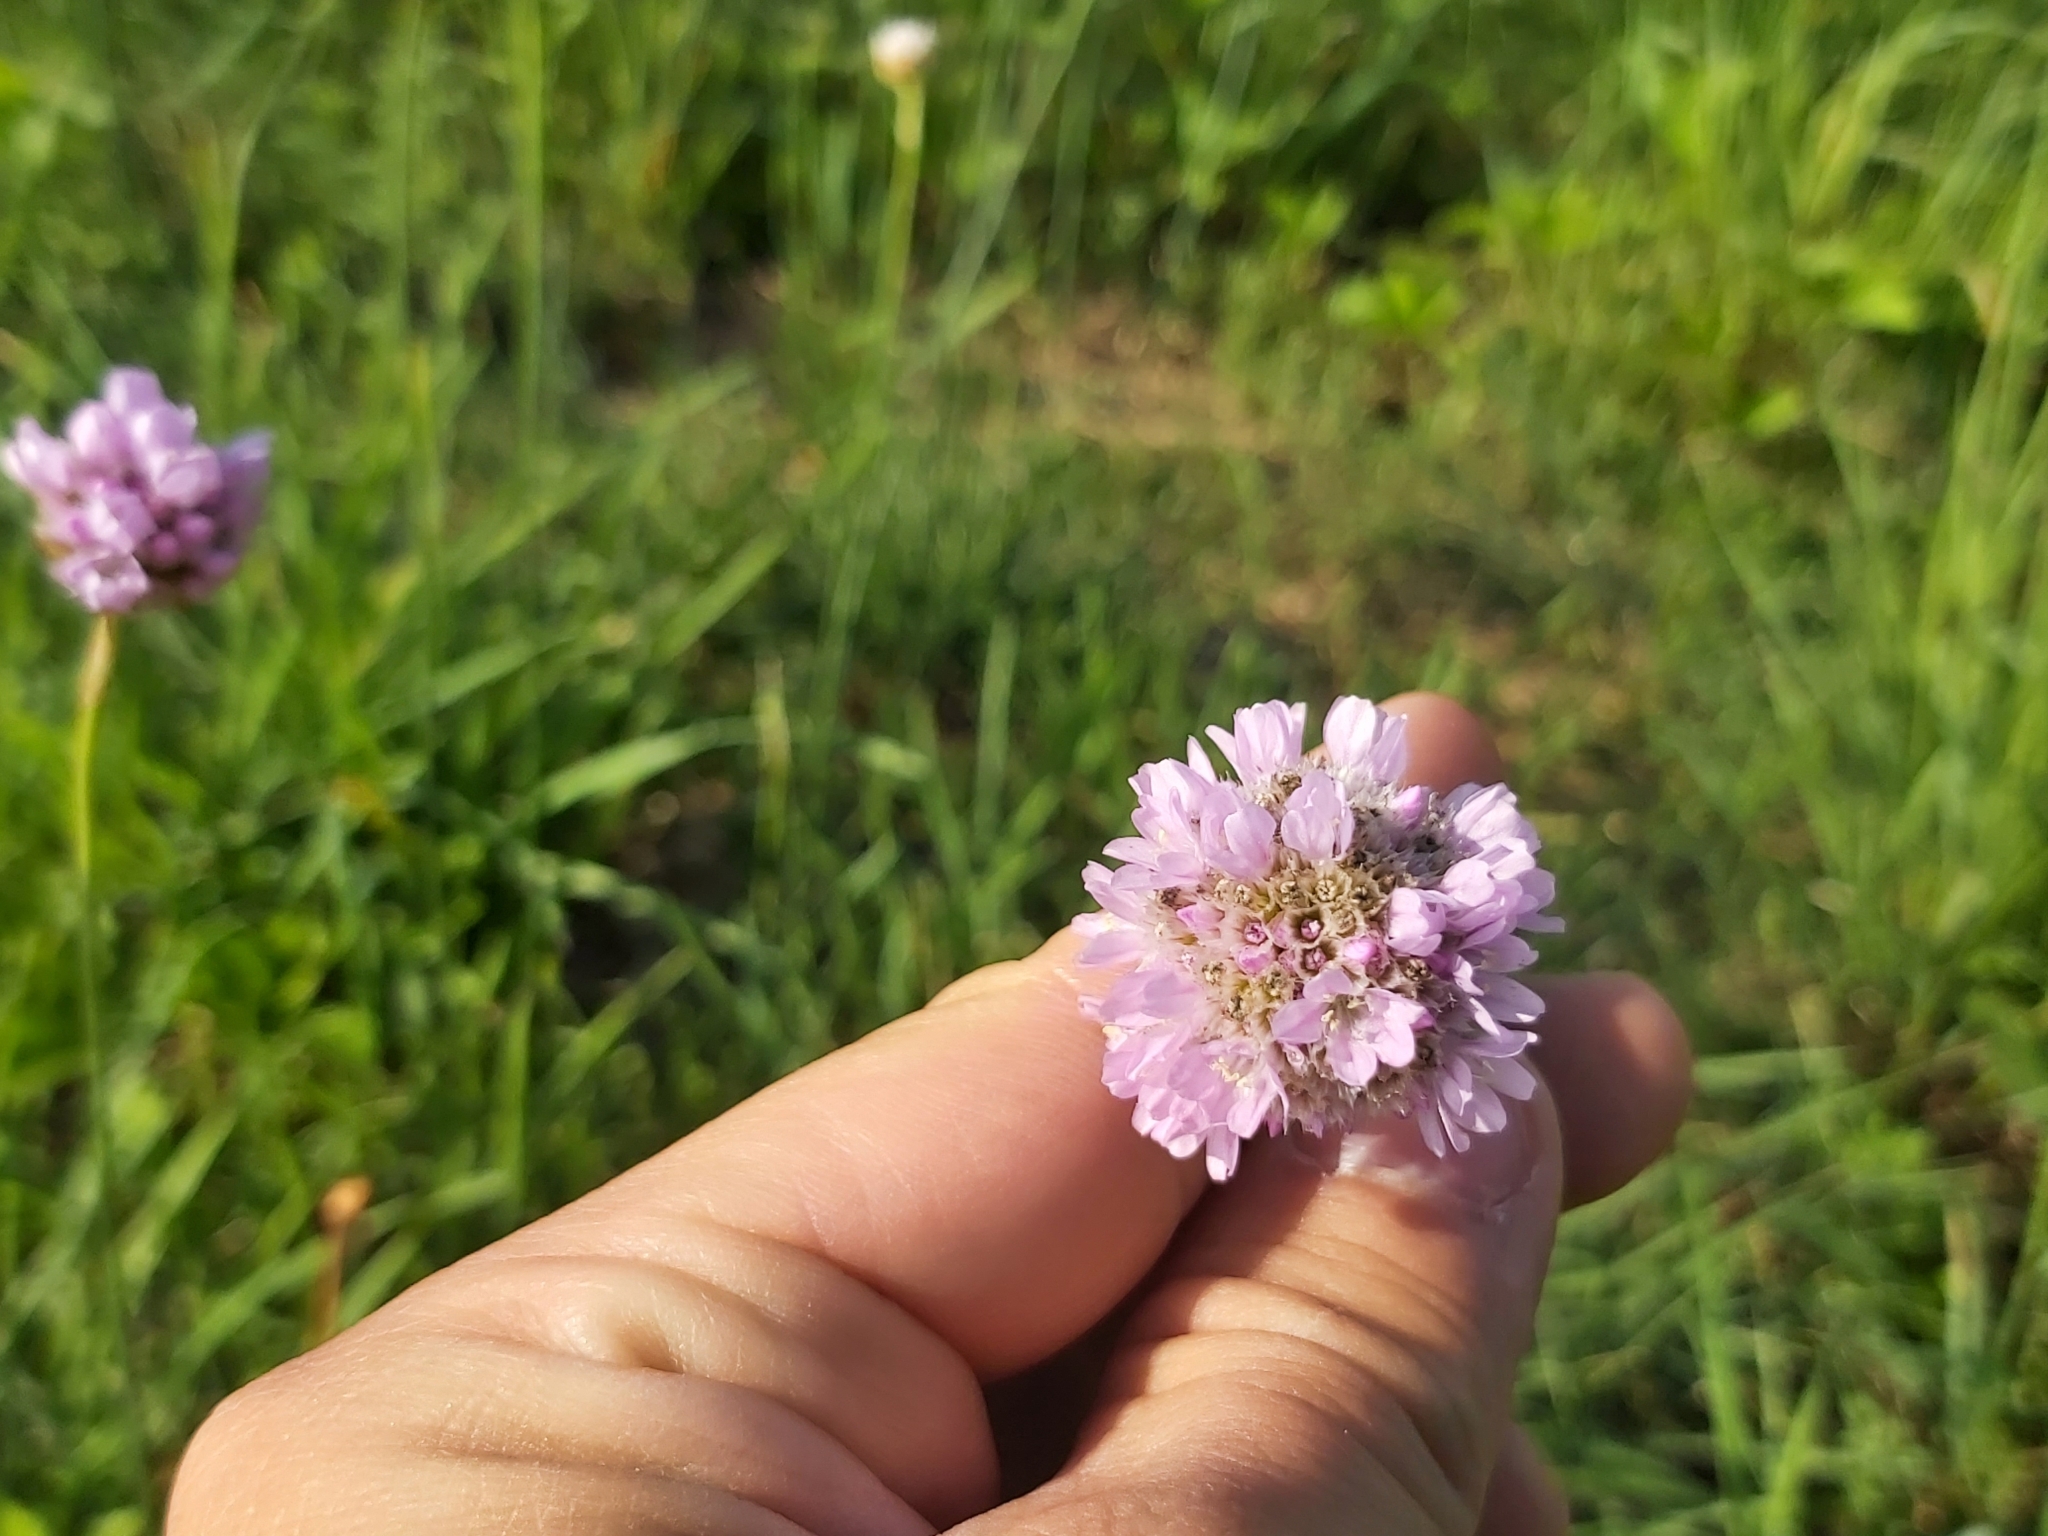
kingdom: Plantae
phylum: Tracheophyta
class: Magnoliopsida
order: Caryophyllales
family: Plumbaginaceae
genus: Armeria
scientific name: Armeria maritima
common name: Thrift
